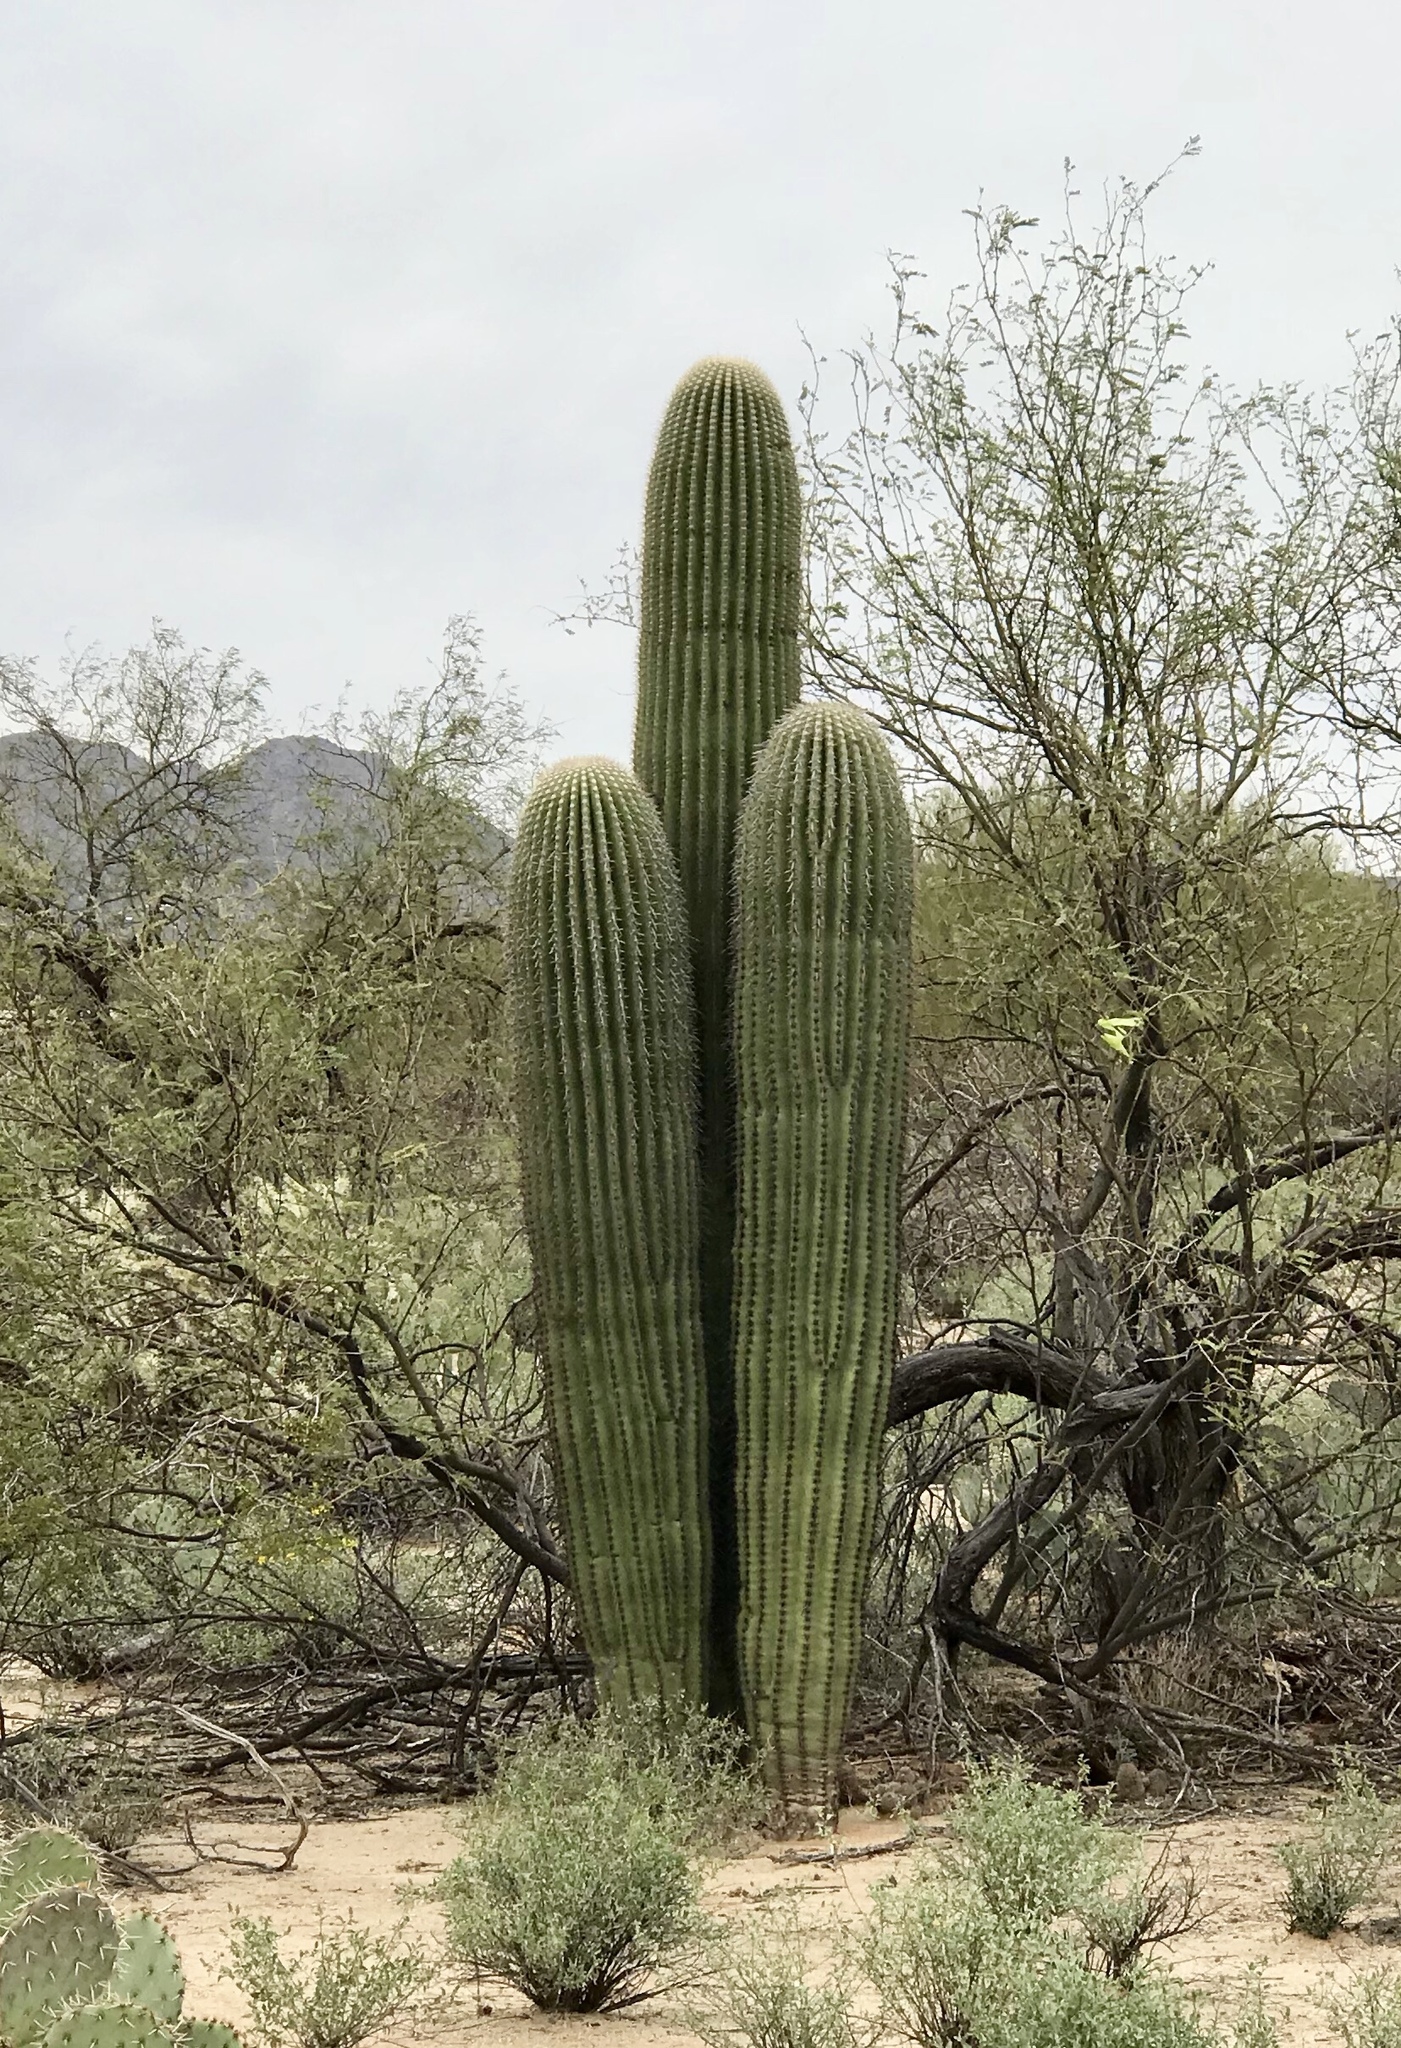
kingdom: Plantae
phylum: Tracheophyta
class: Magnoliopsida
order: Caryophyllales
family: Cactaceae
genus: Carnegiea
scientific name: Carnegiea gigantea
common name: Saguaro
